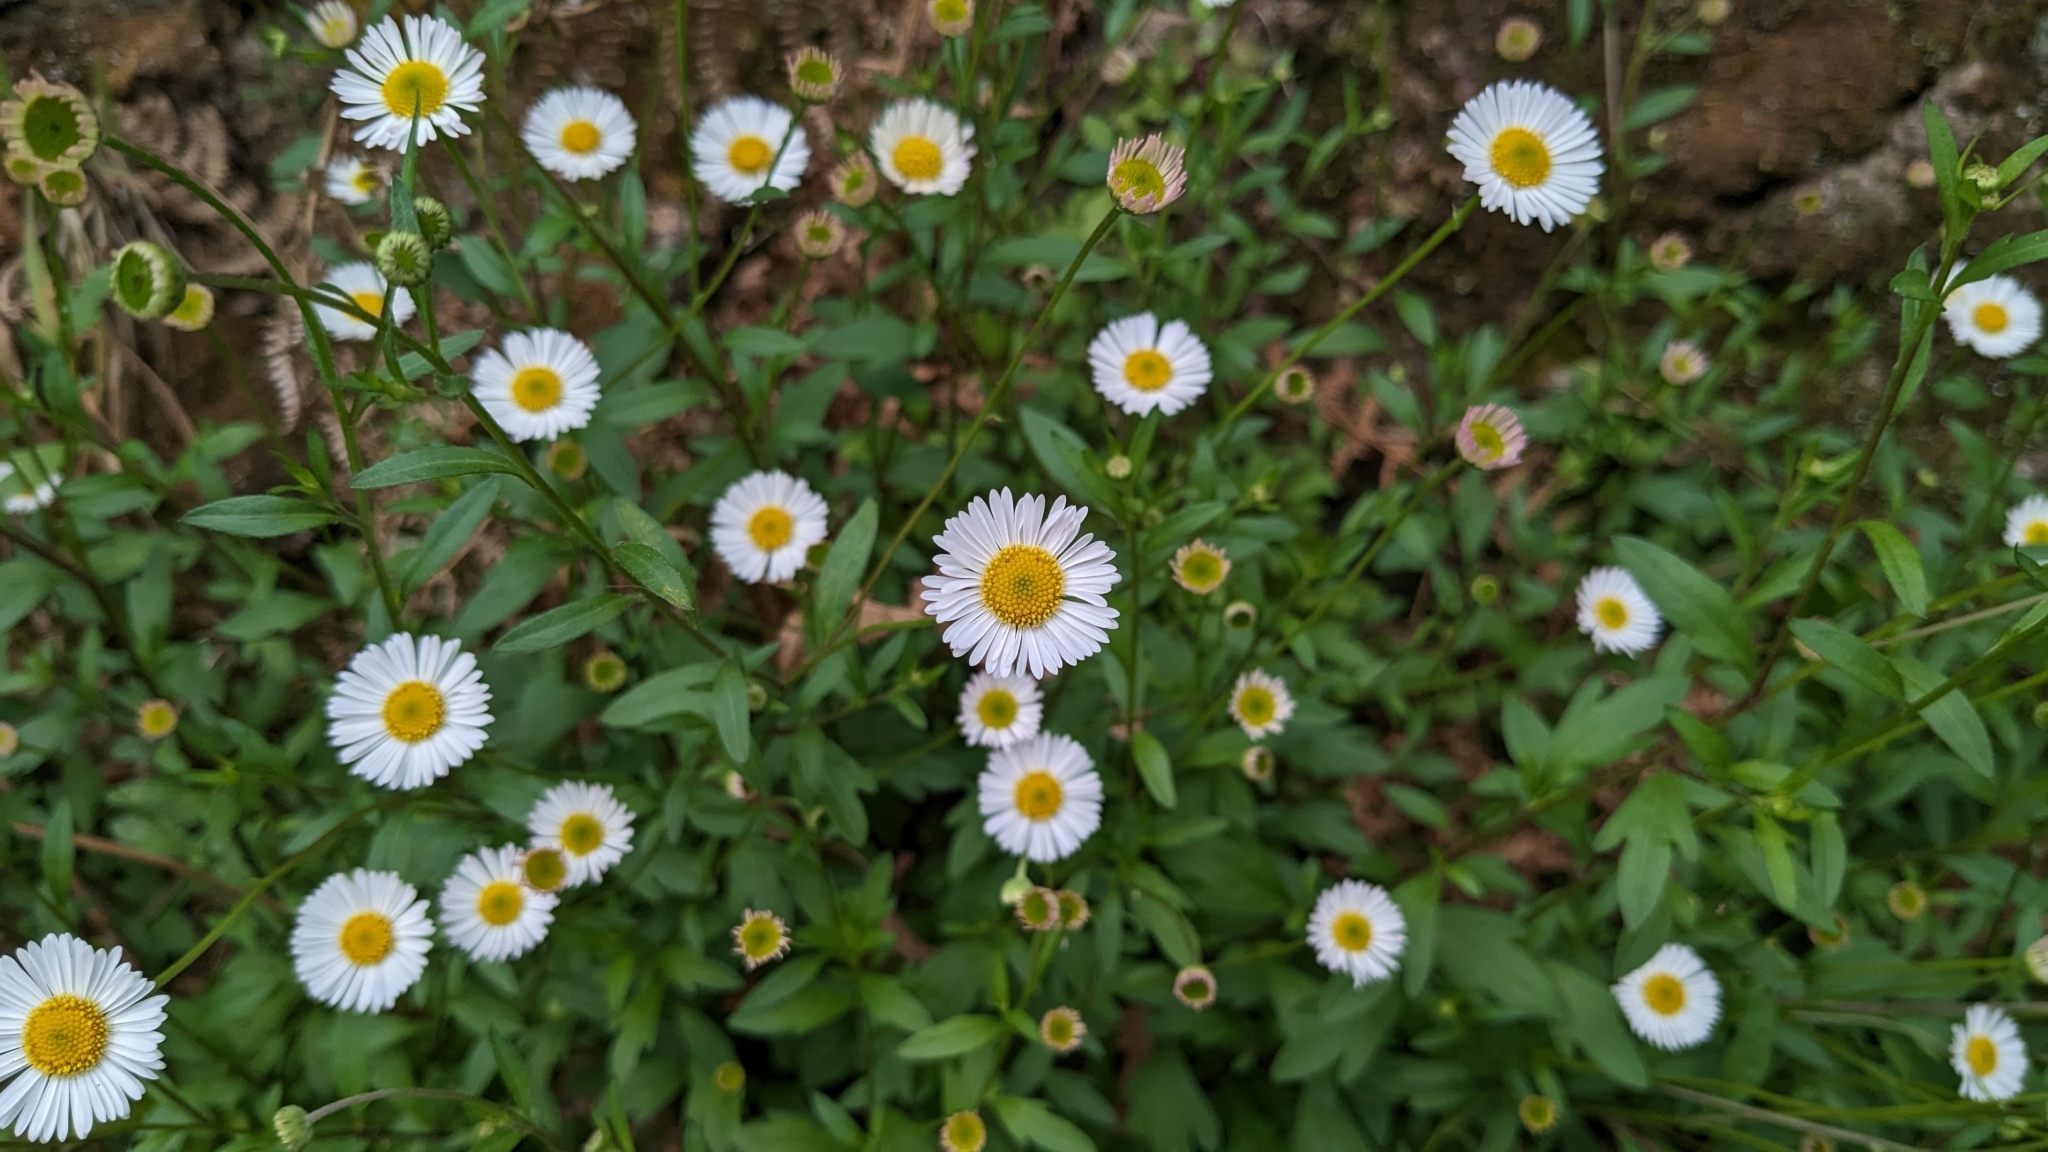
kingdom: Plantae
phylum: Tracheophyta
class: Magnoliopsida
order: Asterales
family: Asteraceae
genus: Erigeron
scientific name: Erigeron karvinskianus
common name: Mexican fleabane
